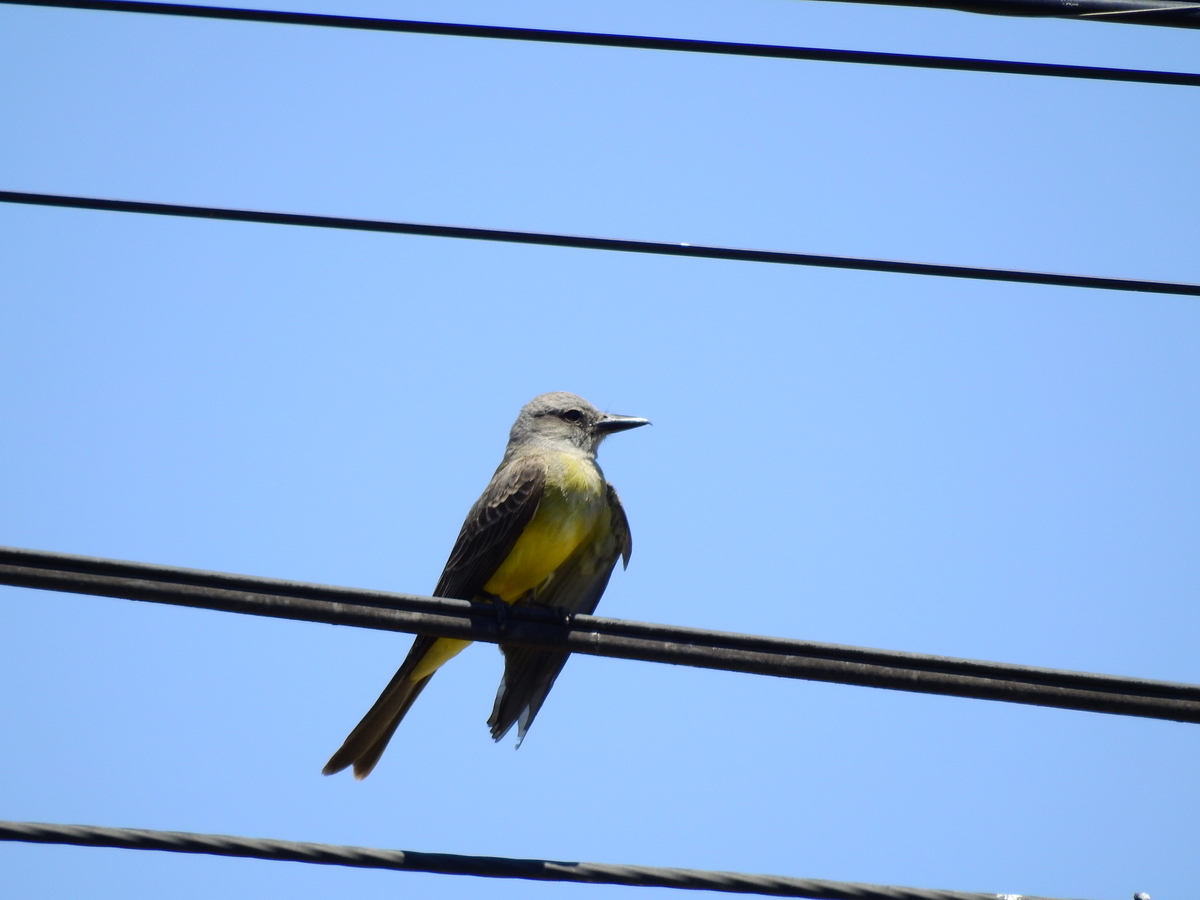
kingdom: Animalia
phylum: Chordata
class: Aves
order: Passeriformes
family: Tyrannidae
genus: Tyrannus
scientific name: Tyrannus melancholicus
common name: Tropical kingbird
